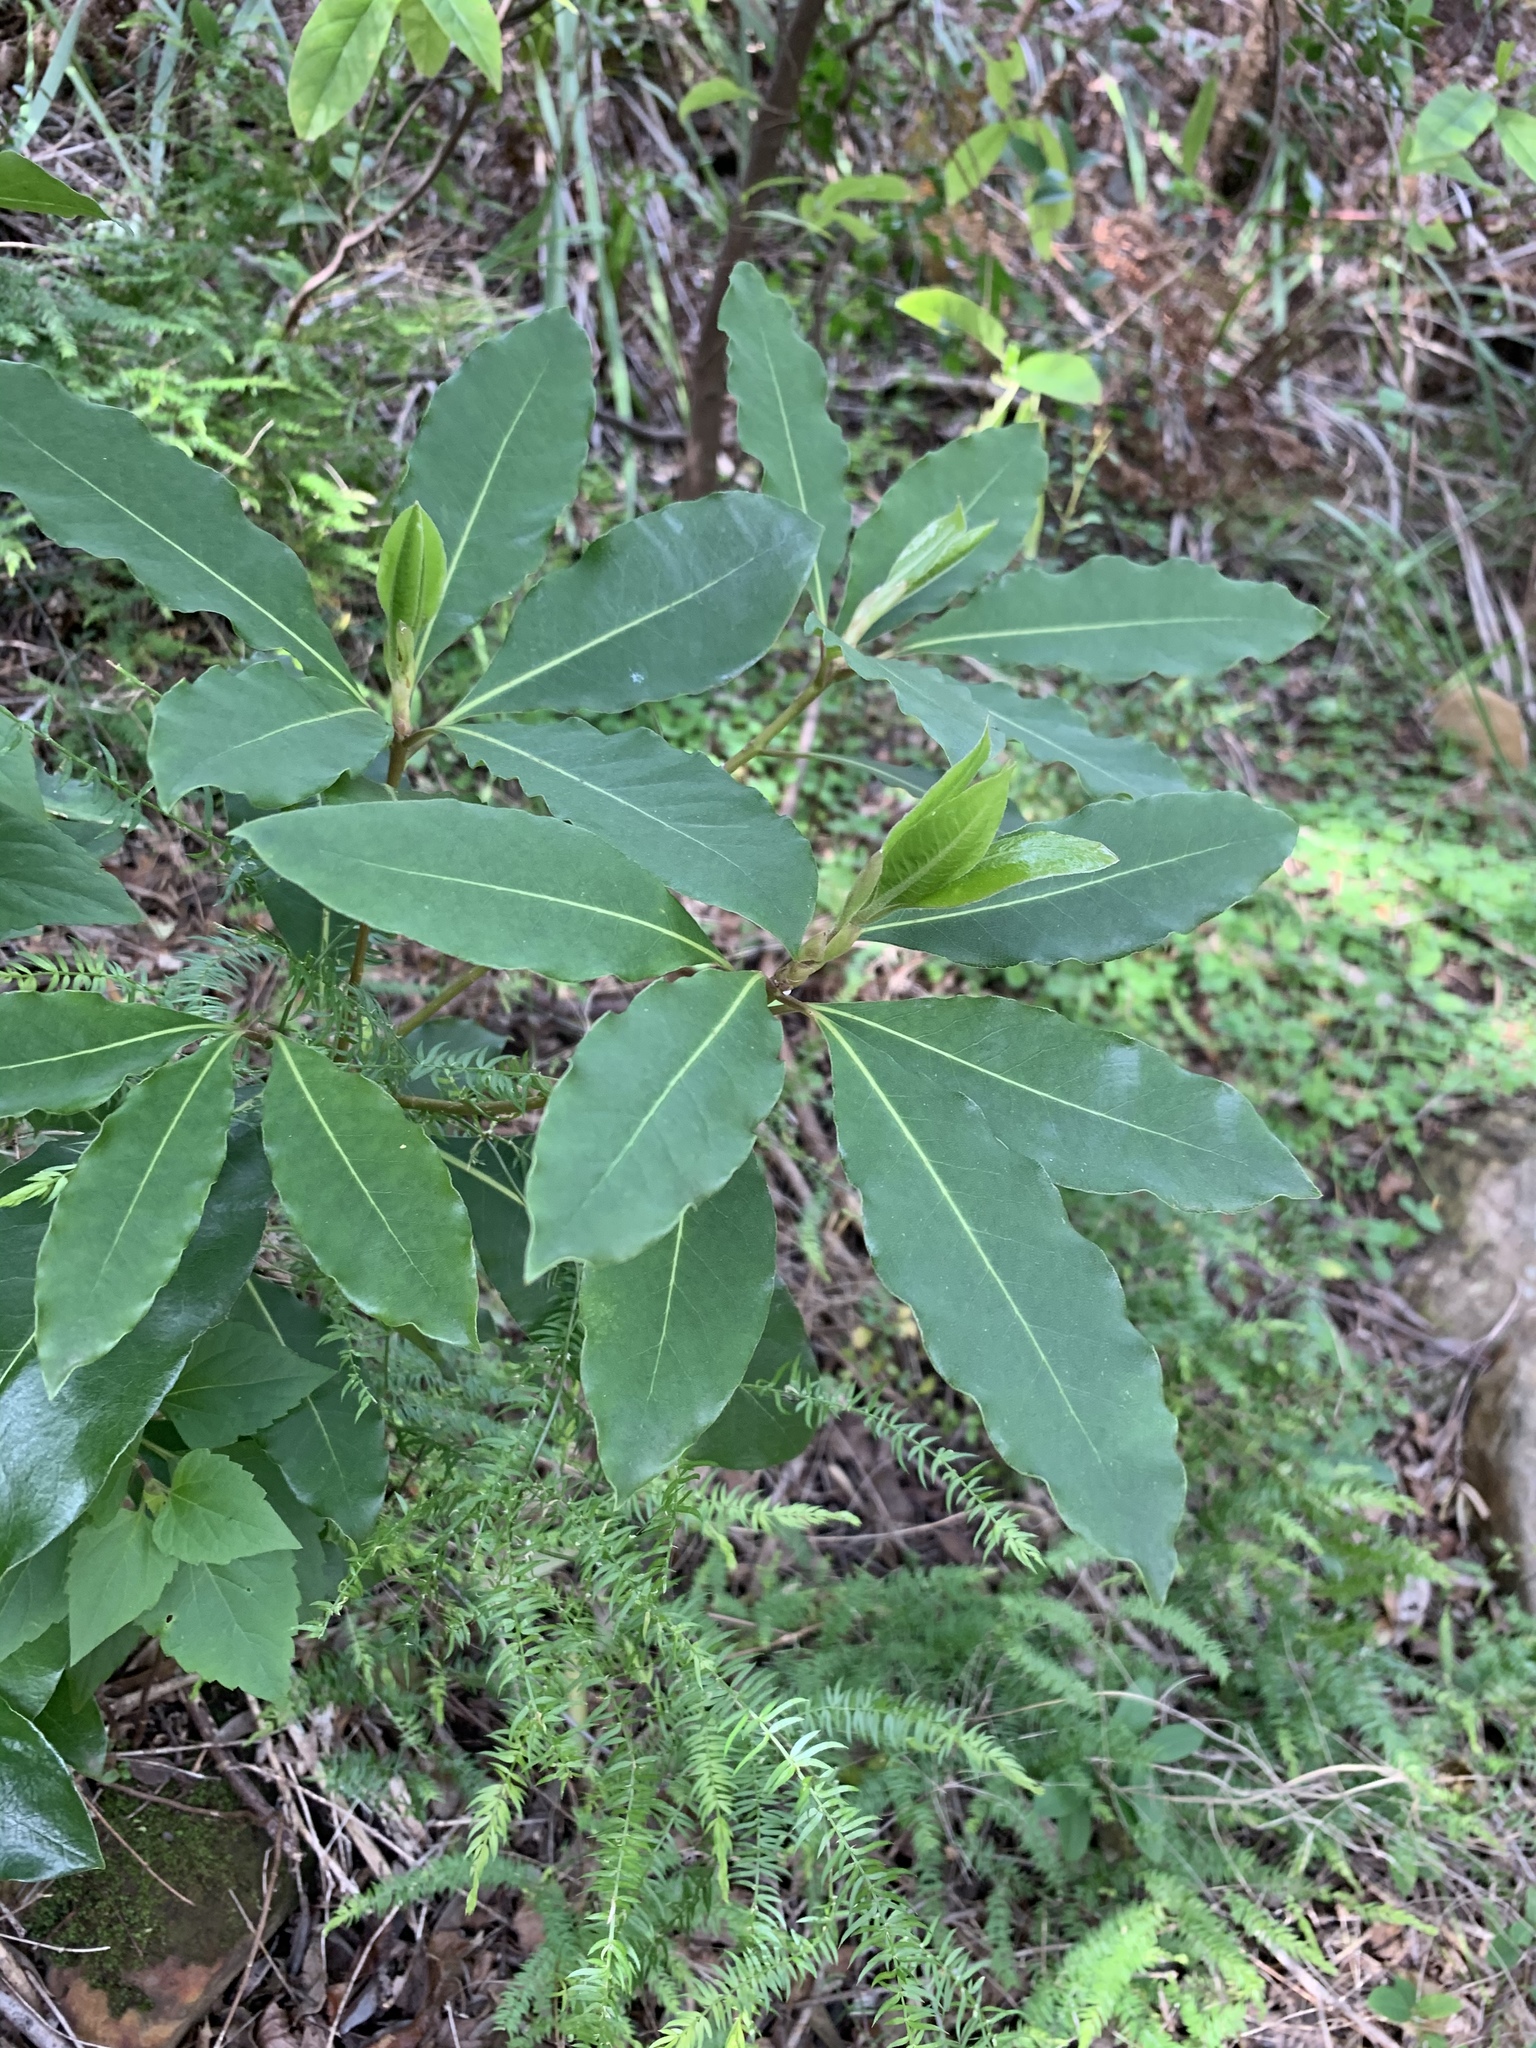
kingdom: Plantae
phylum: Tracheophyta
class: Magnoliopsida
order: Apiales
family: Pittosporaceae
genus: Pittosporum
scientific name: Pittosporum undulatum
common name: Australian cheesewood
